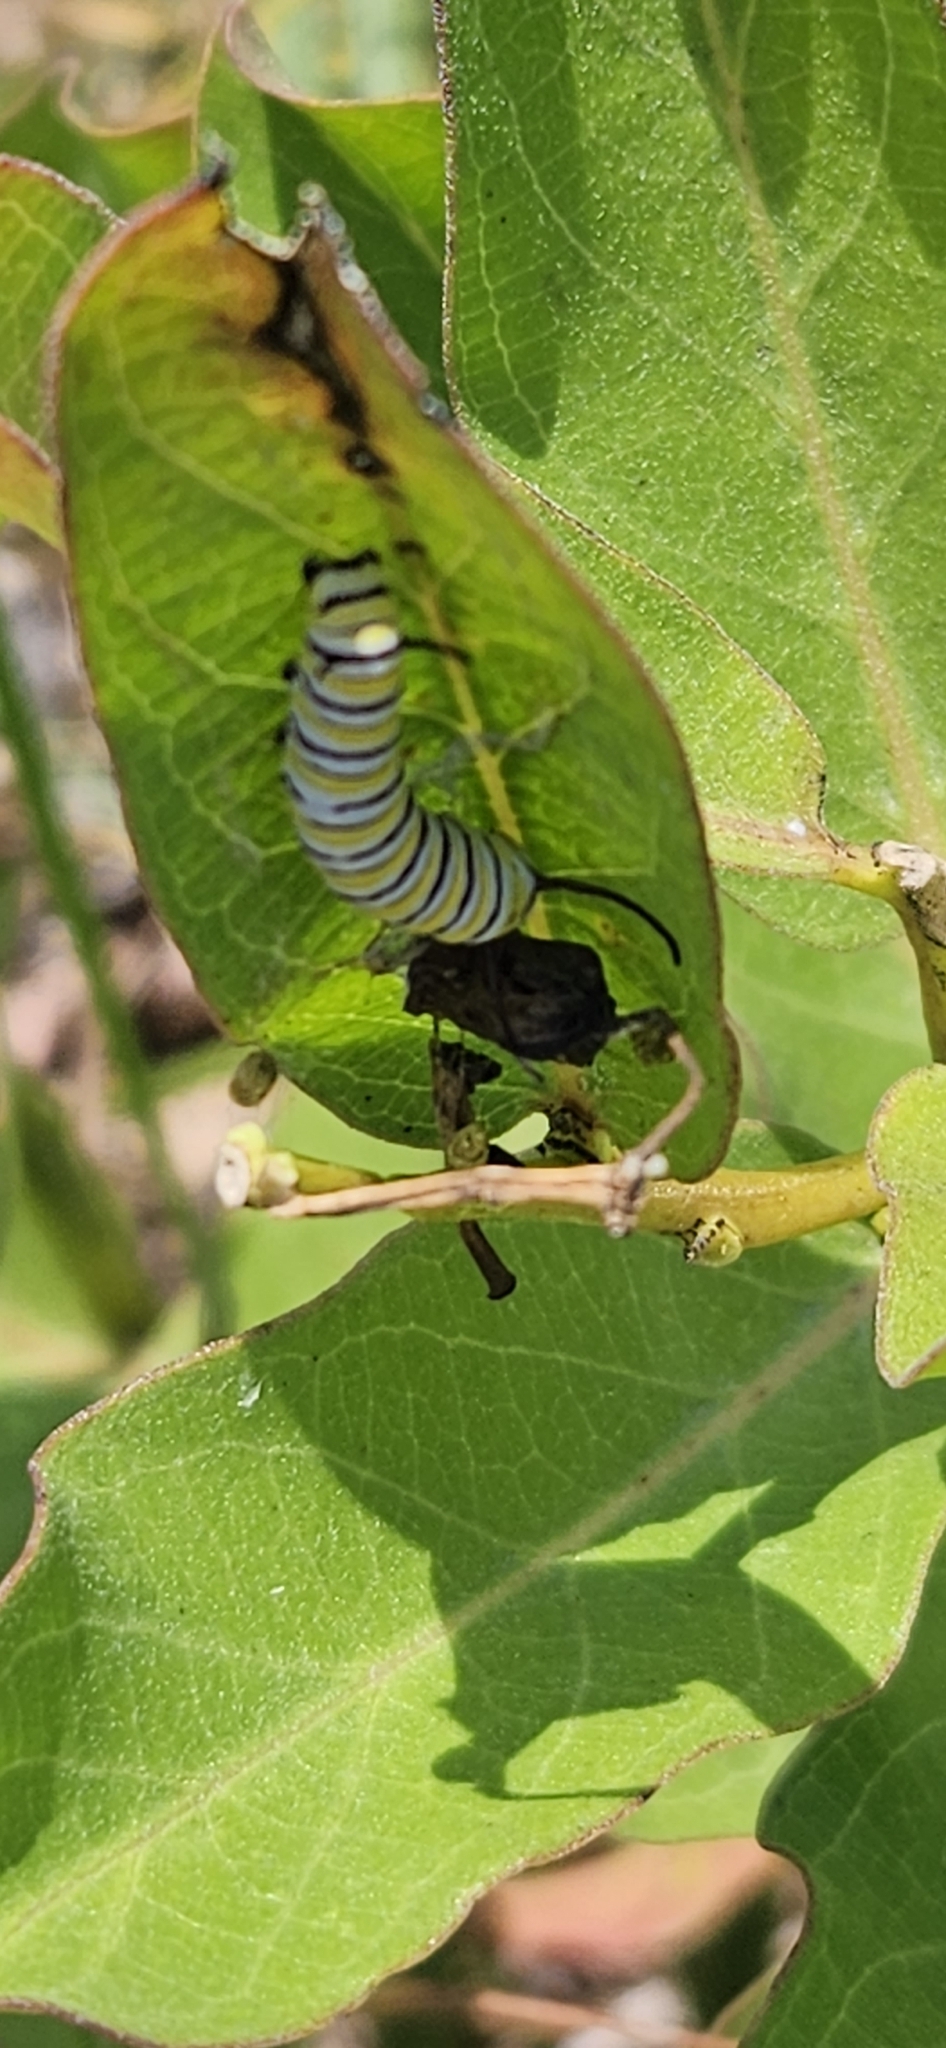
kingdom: Animalia
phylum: Arthropoda
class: Insecta
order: Lepidoptera
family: Nymphalidae
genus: Danaus
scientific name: Danaus plexippus
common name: Monarch
